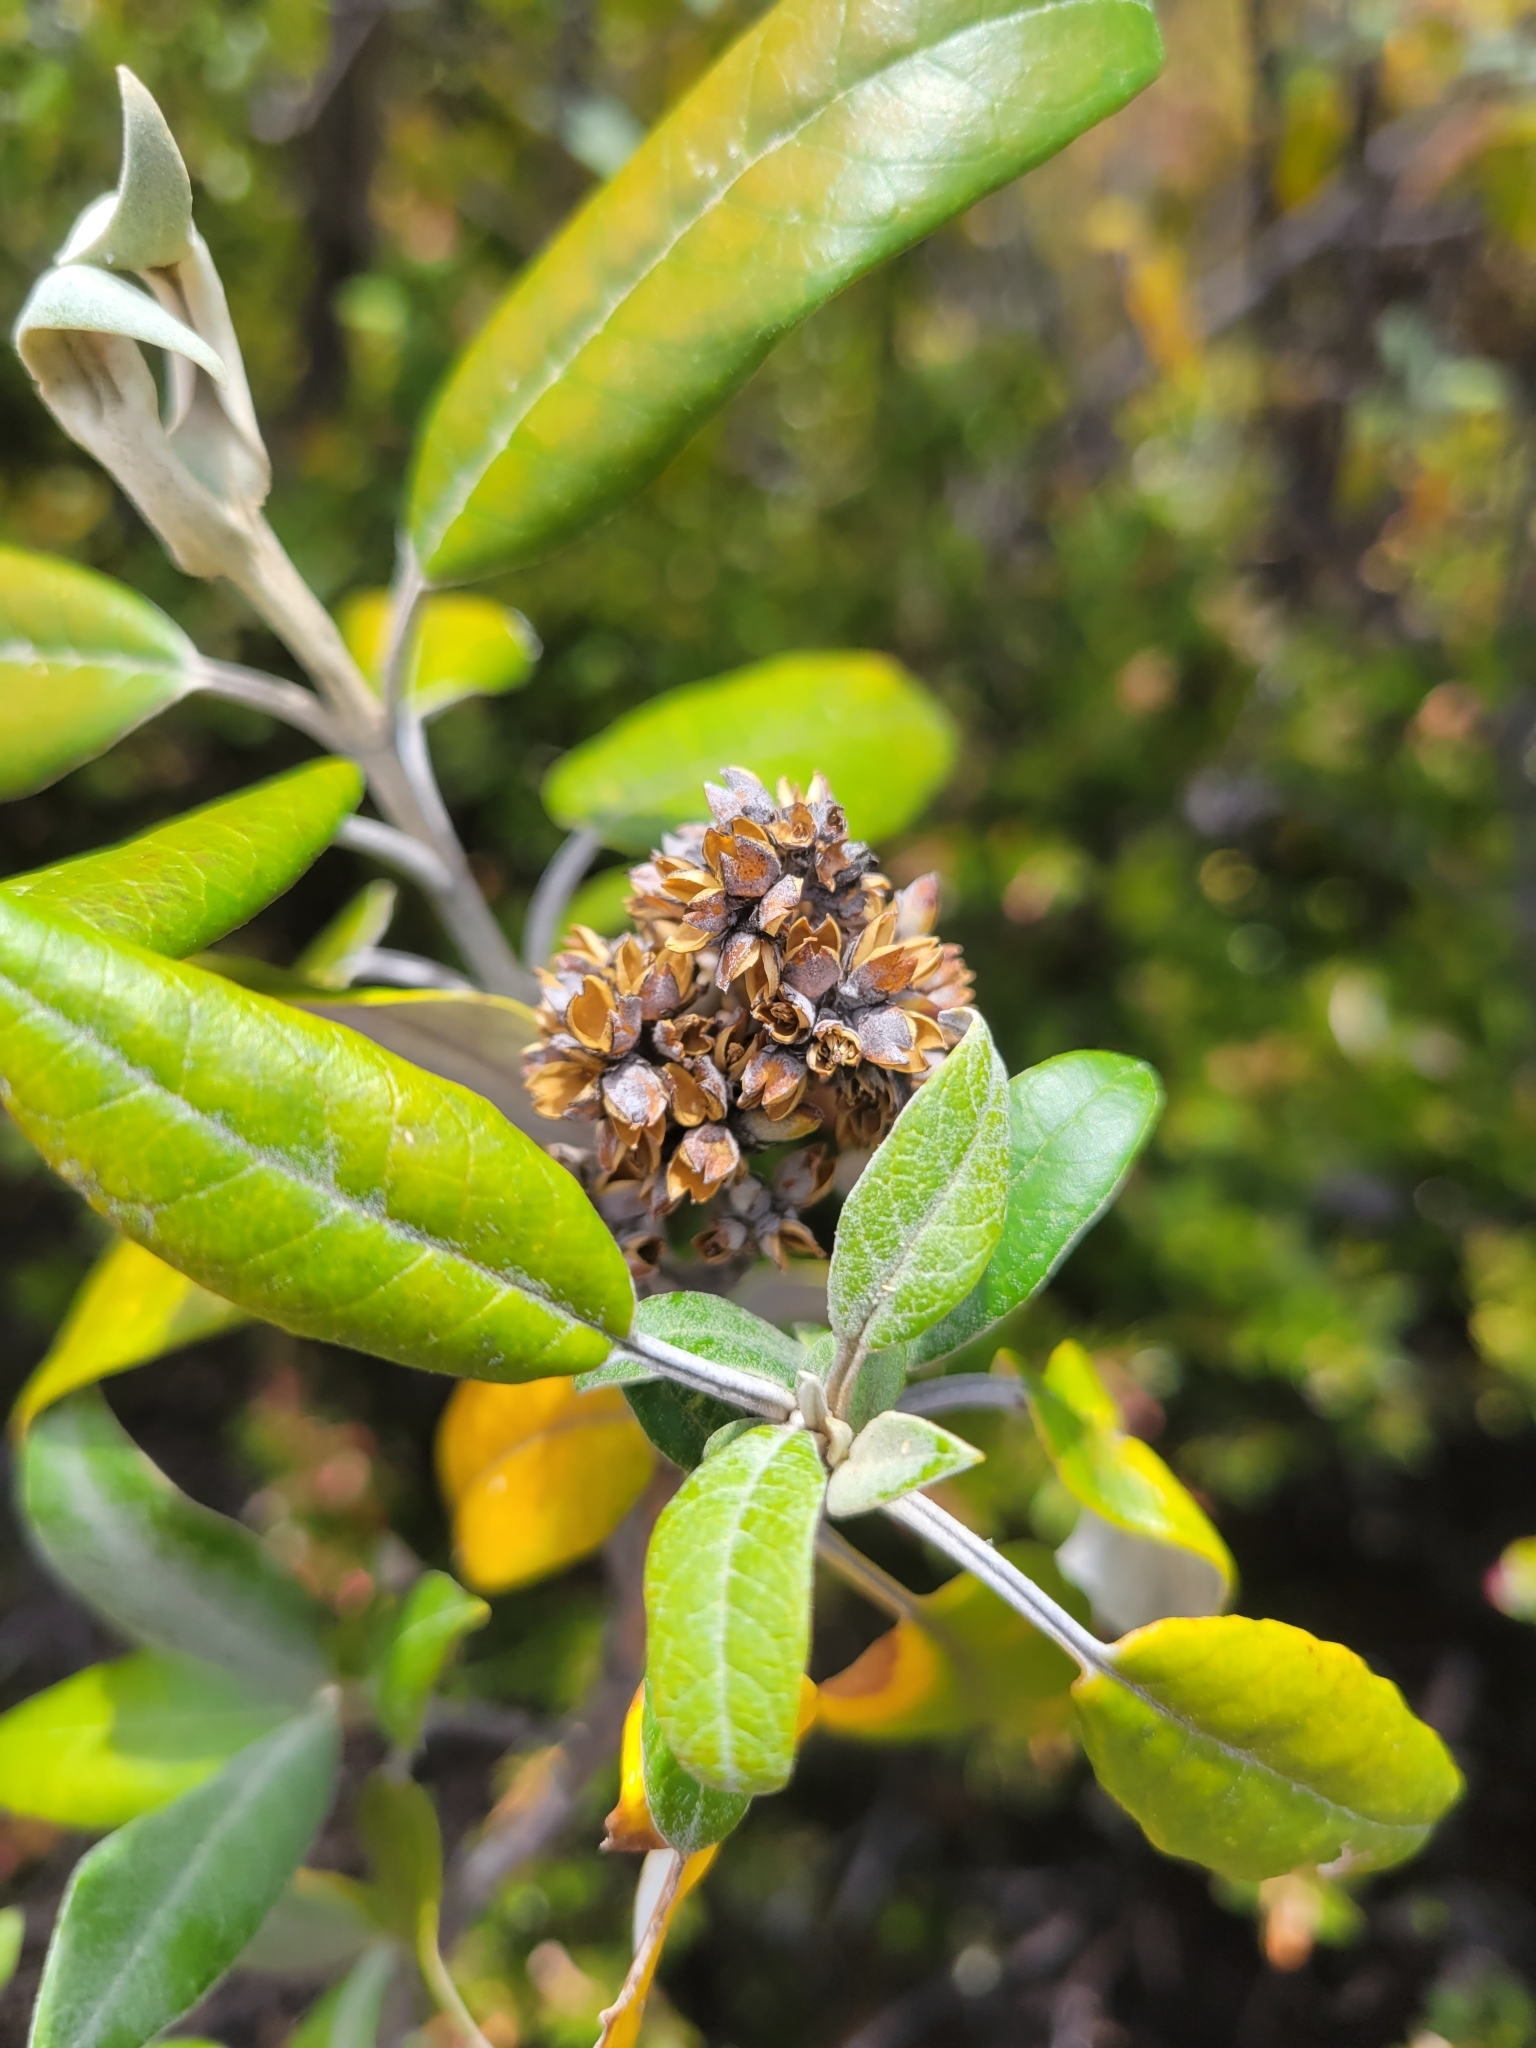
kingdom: Plantae
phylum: Tracheophyta
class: Magnoliopsida
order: Lamiales
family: Scrophulariaceae
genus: Buddleja
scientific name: Buddleja nitida
